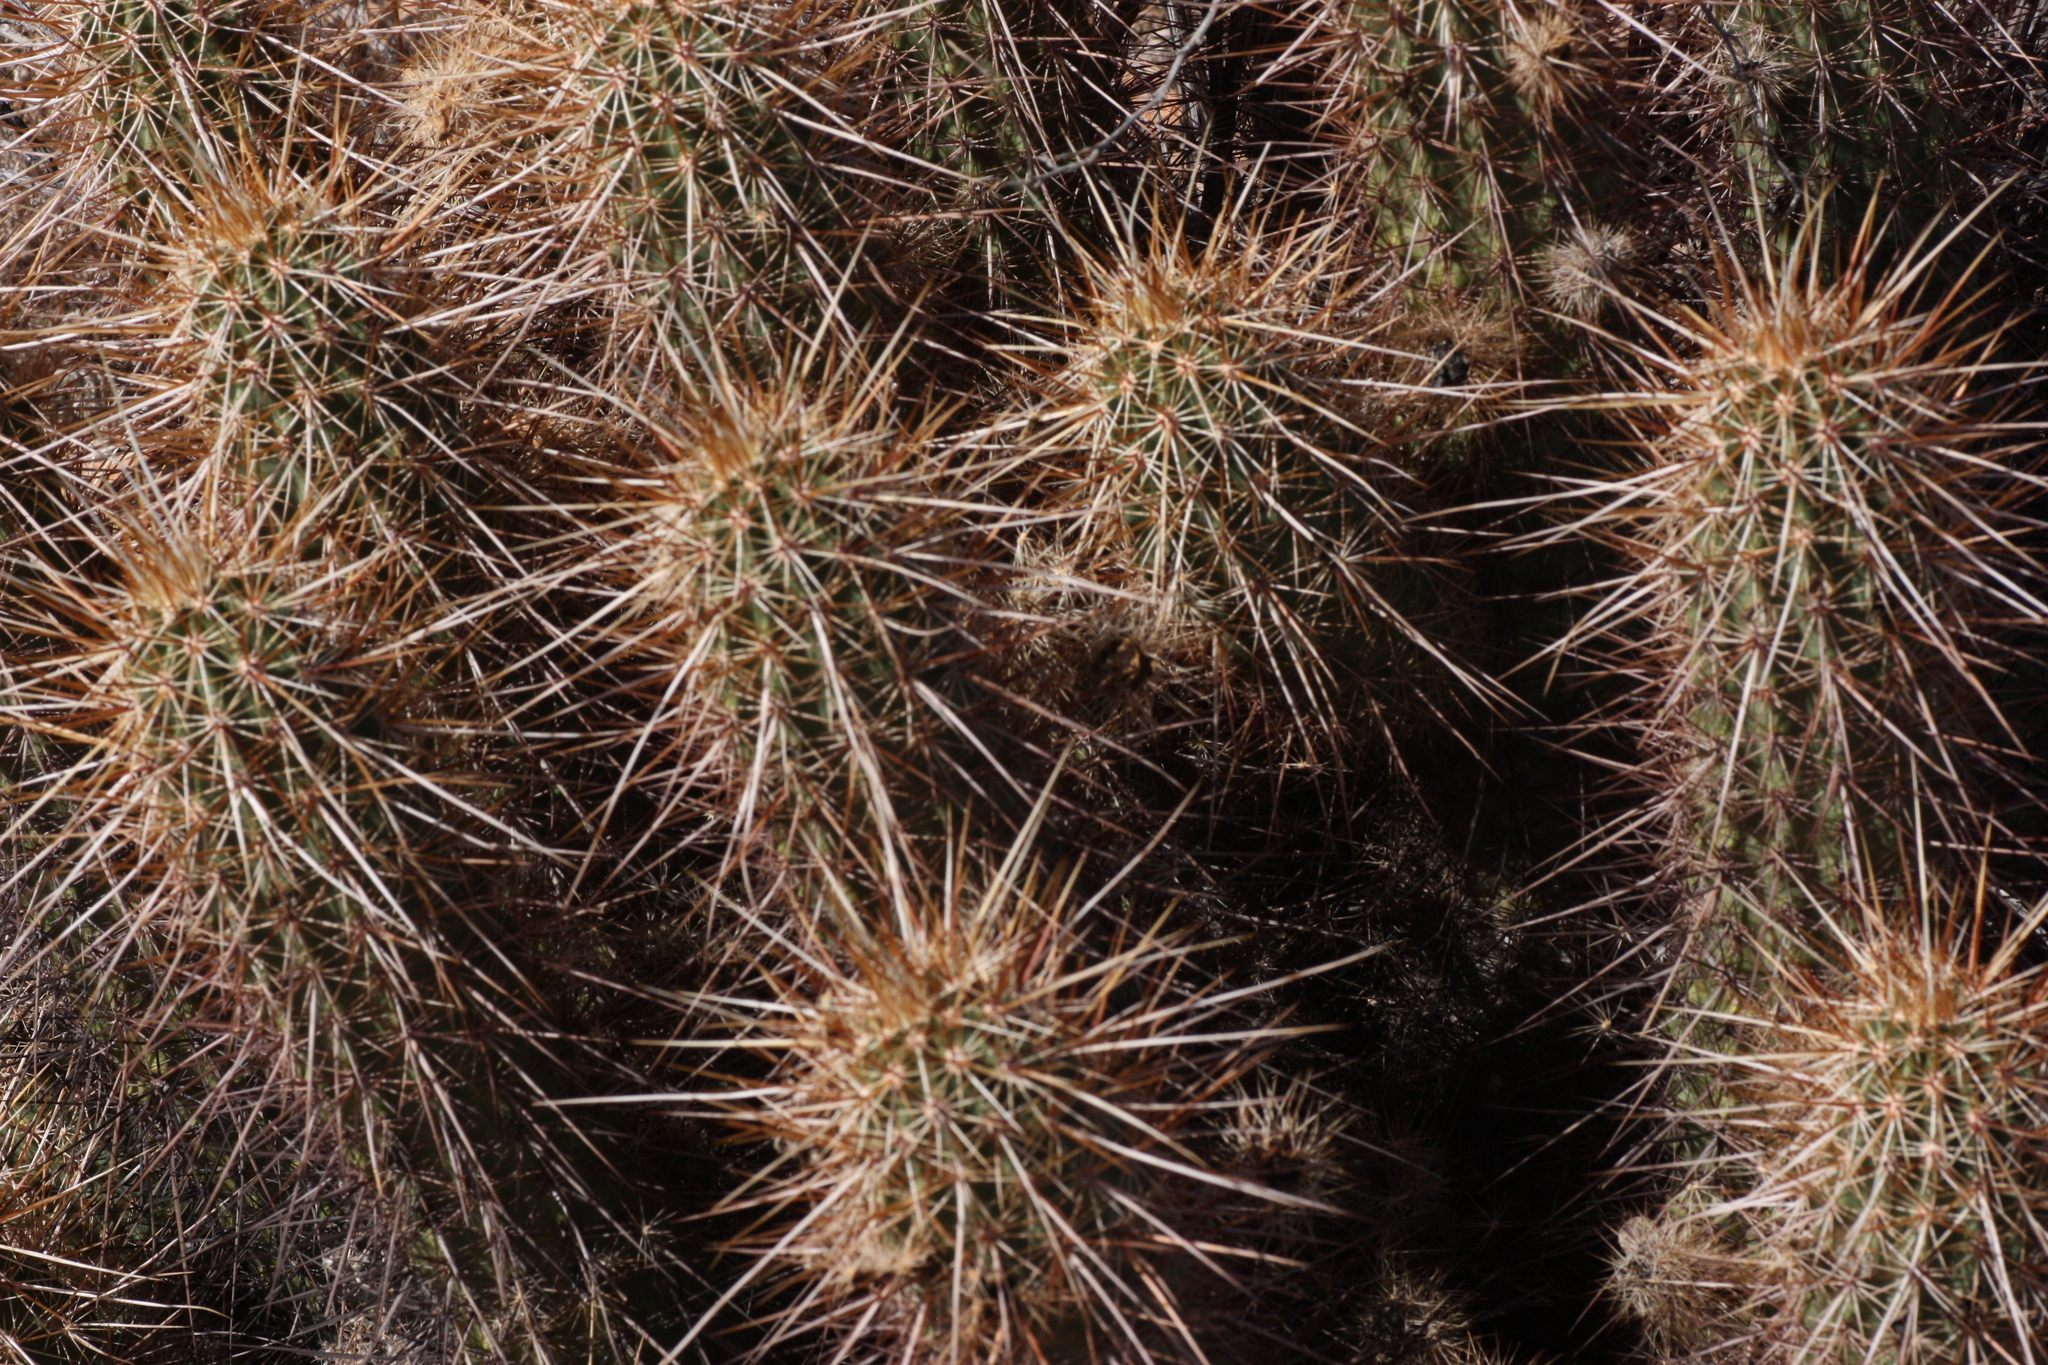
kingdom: Plantae
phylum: Tracheophyta
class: Magnoliopsida
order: Caryophyllales
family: Cactaceae
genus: Echinocereus
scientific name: Echinocereus engelmannii
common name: Engelmann's hedgehog cactus
